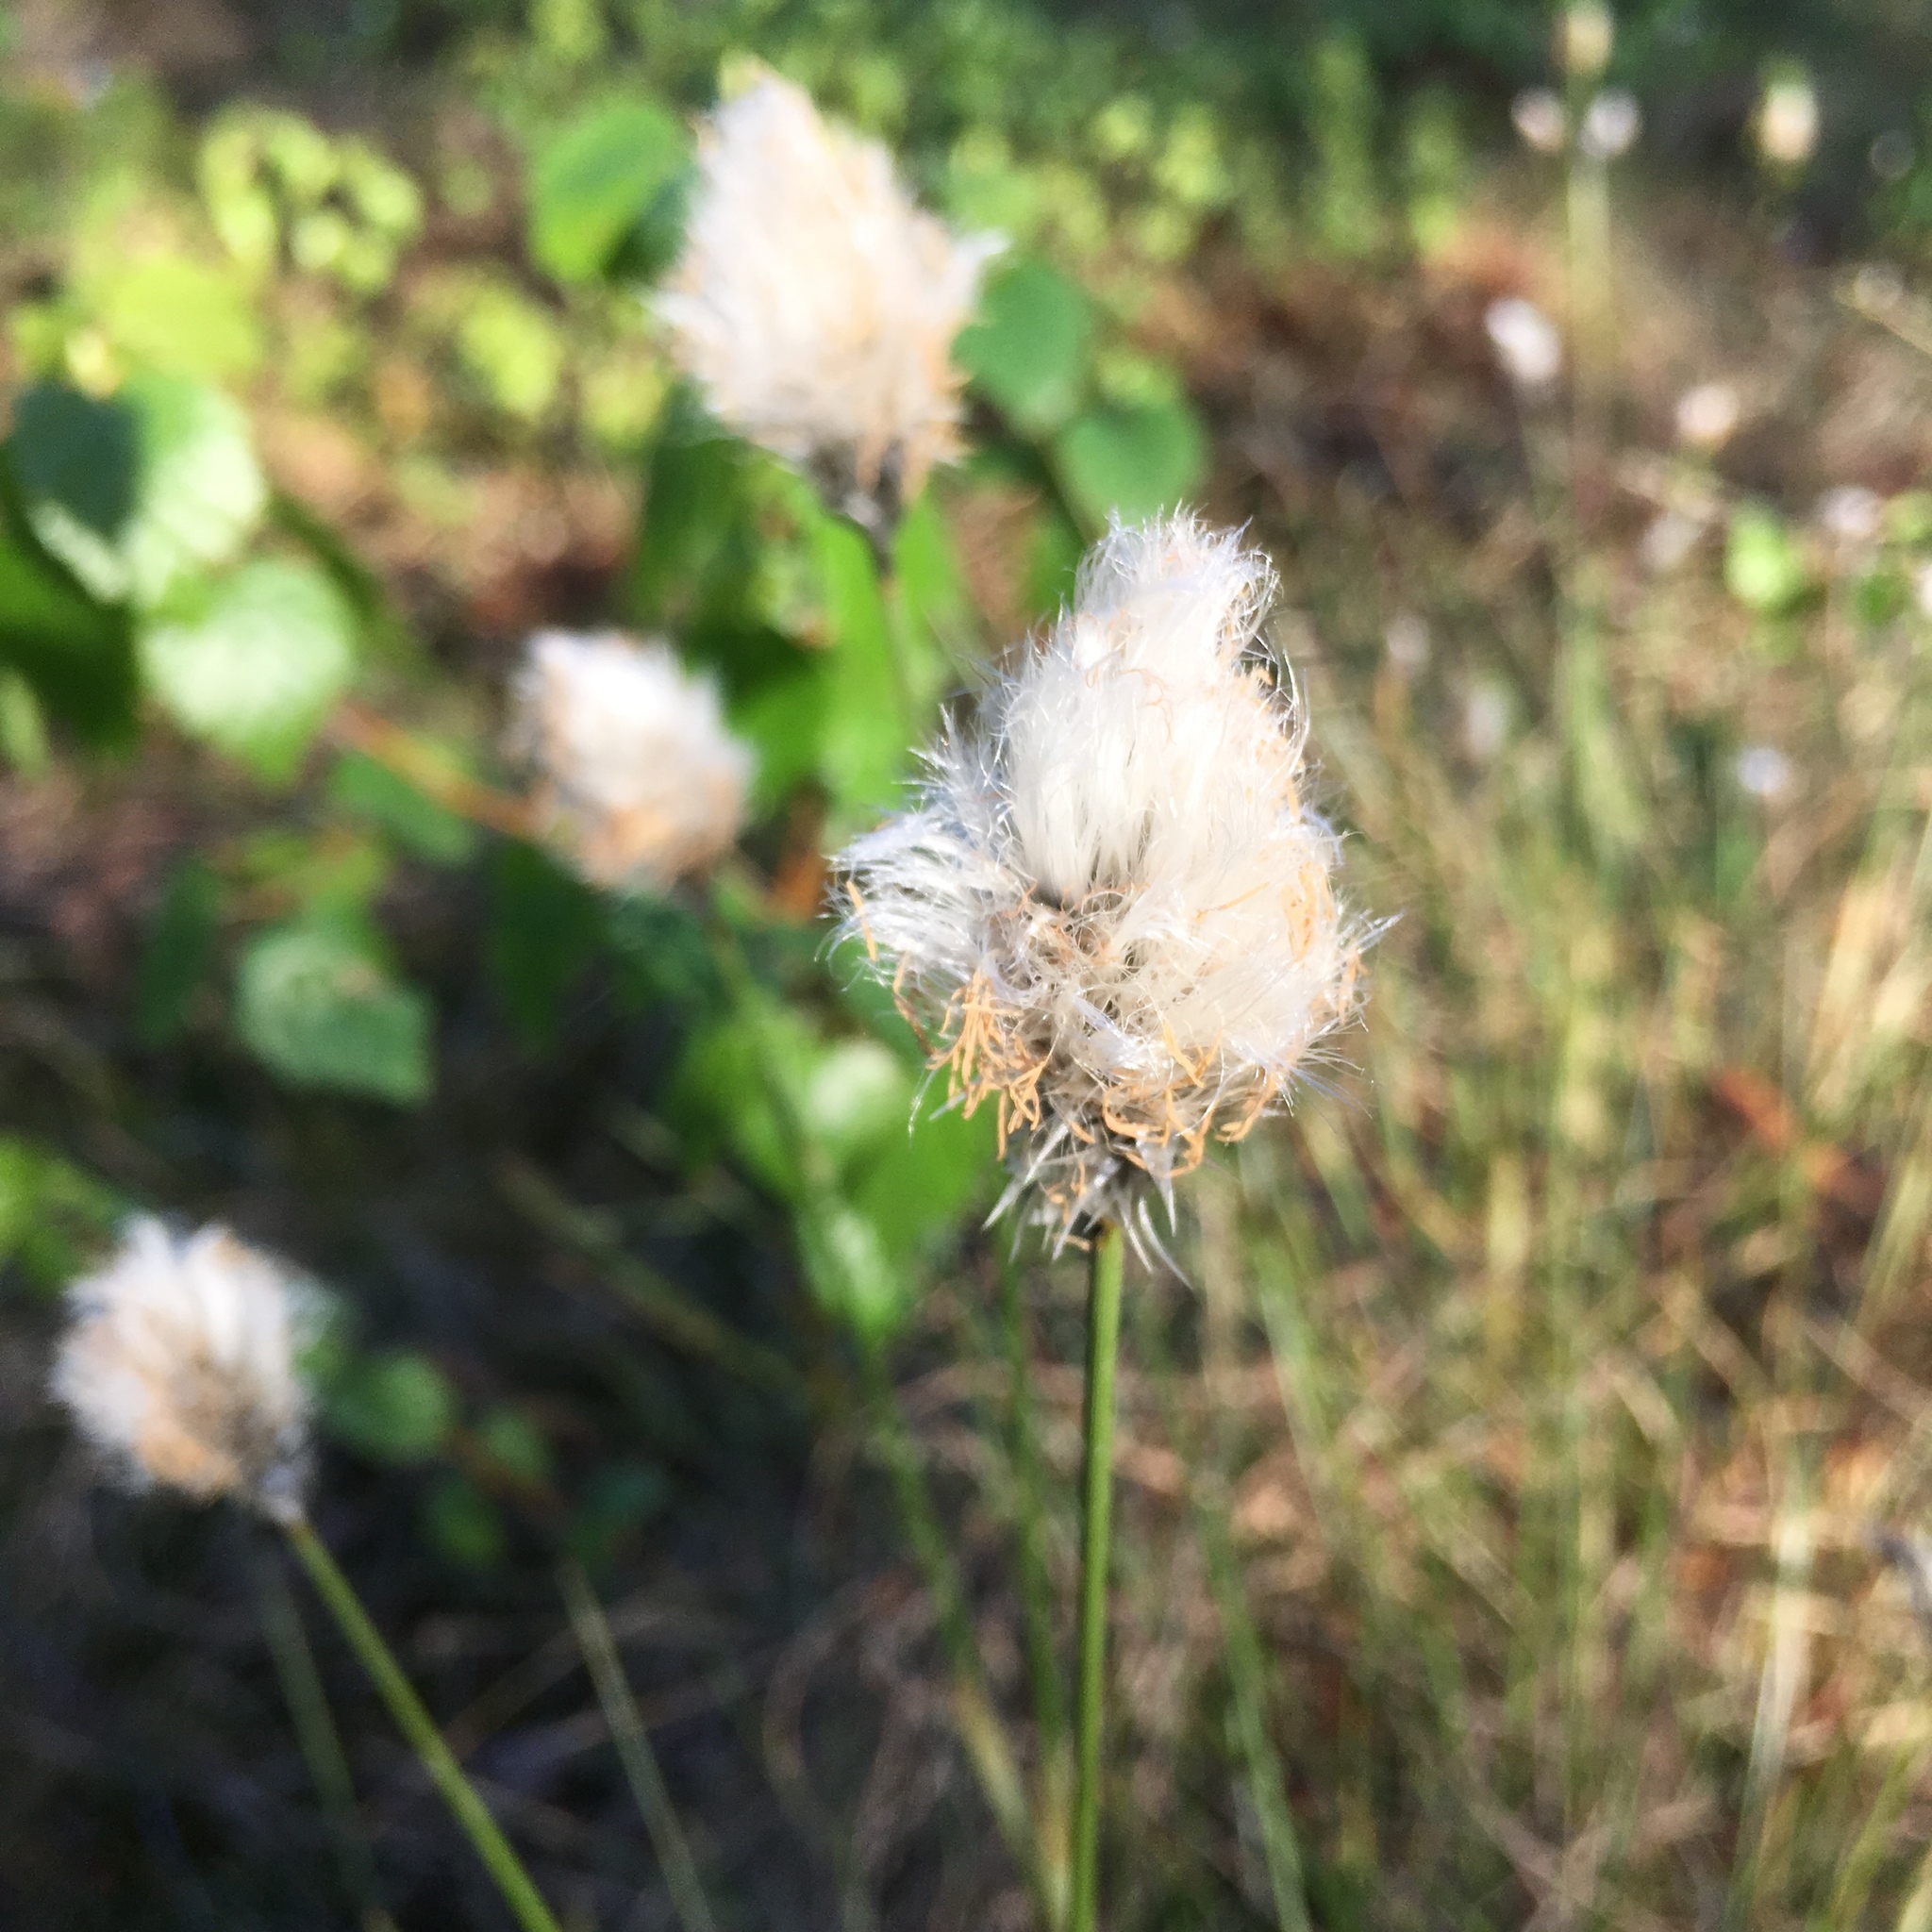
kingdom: Plantae
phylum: Tracheophyta
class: Liliopsida
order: Poales
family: Cyperaceae
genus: Eriophorum
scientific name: Eriophorum vaginatum
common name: Hare's-tail cottongrass
